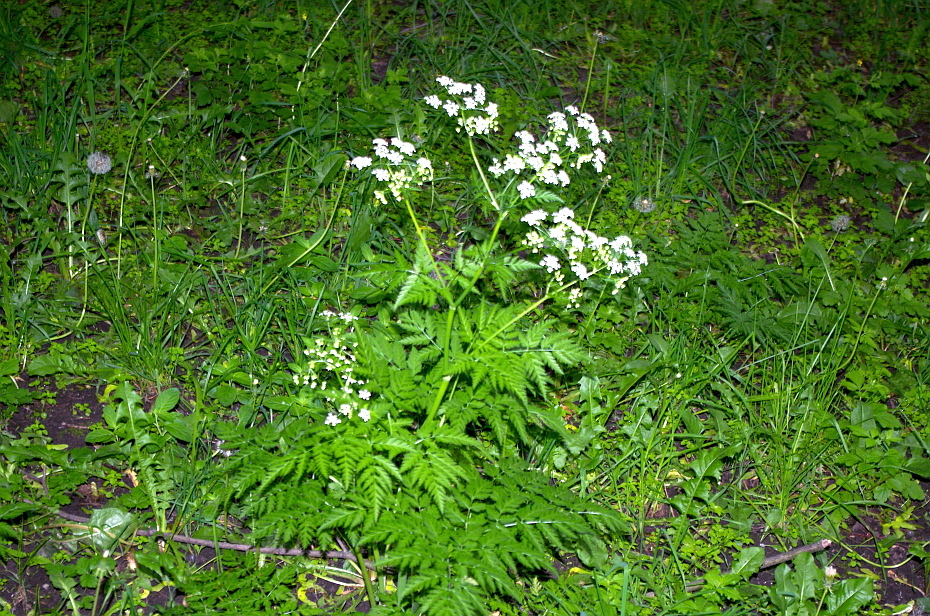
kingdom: Plantae
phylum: Tracheophyta
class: Magnoliopsida
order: Apiales
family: Apiaceae
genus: Anthriscus
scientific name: Anthriscus sylvestris
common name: Cow parsley
